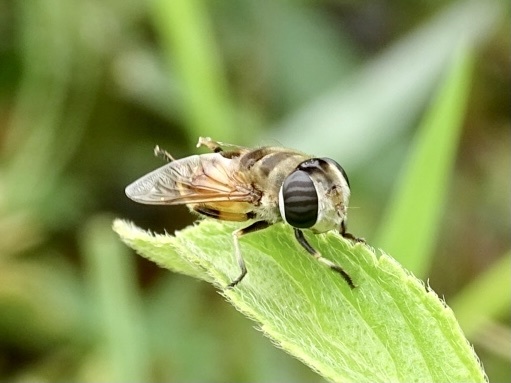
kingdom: Animalia
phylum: Arthropoda
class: Insecta
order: Diptera
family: Syrphidae
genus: Phytomia
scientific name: Phytomia errans
